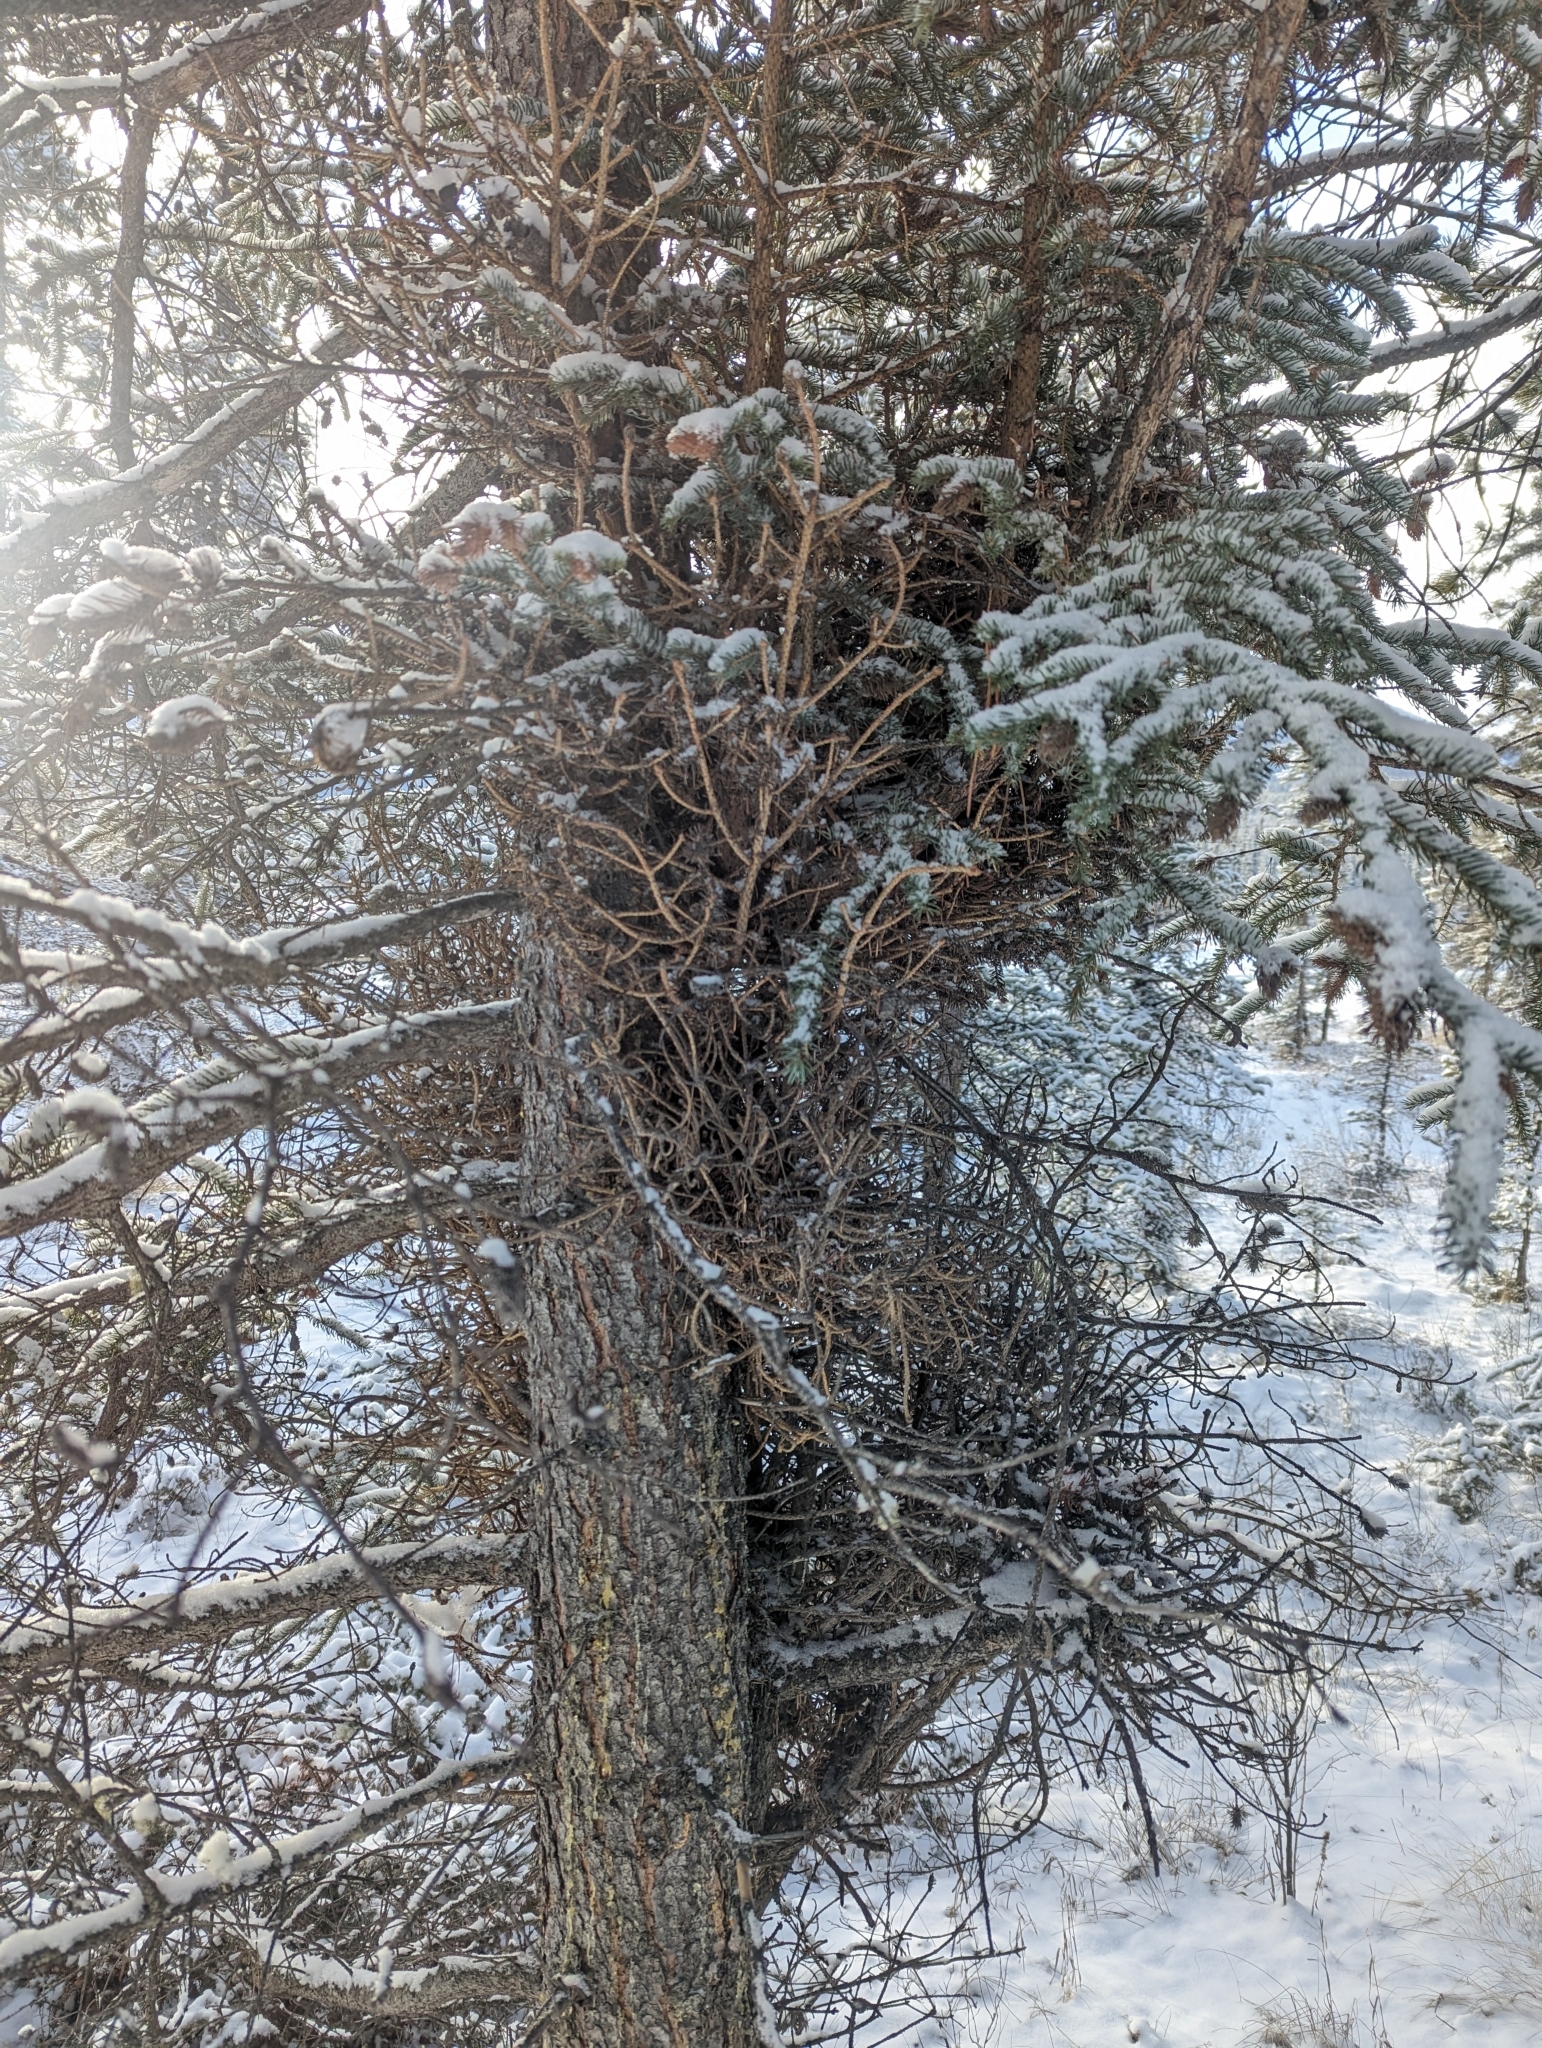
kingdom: Fungi
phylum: Basidiomycota
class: Pucciniomycetes
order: Pucciniales
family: Coleosporiaceae
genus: Chrysomyxa
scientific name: Chrysomyxa arctostaphyli
